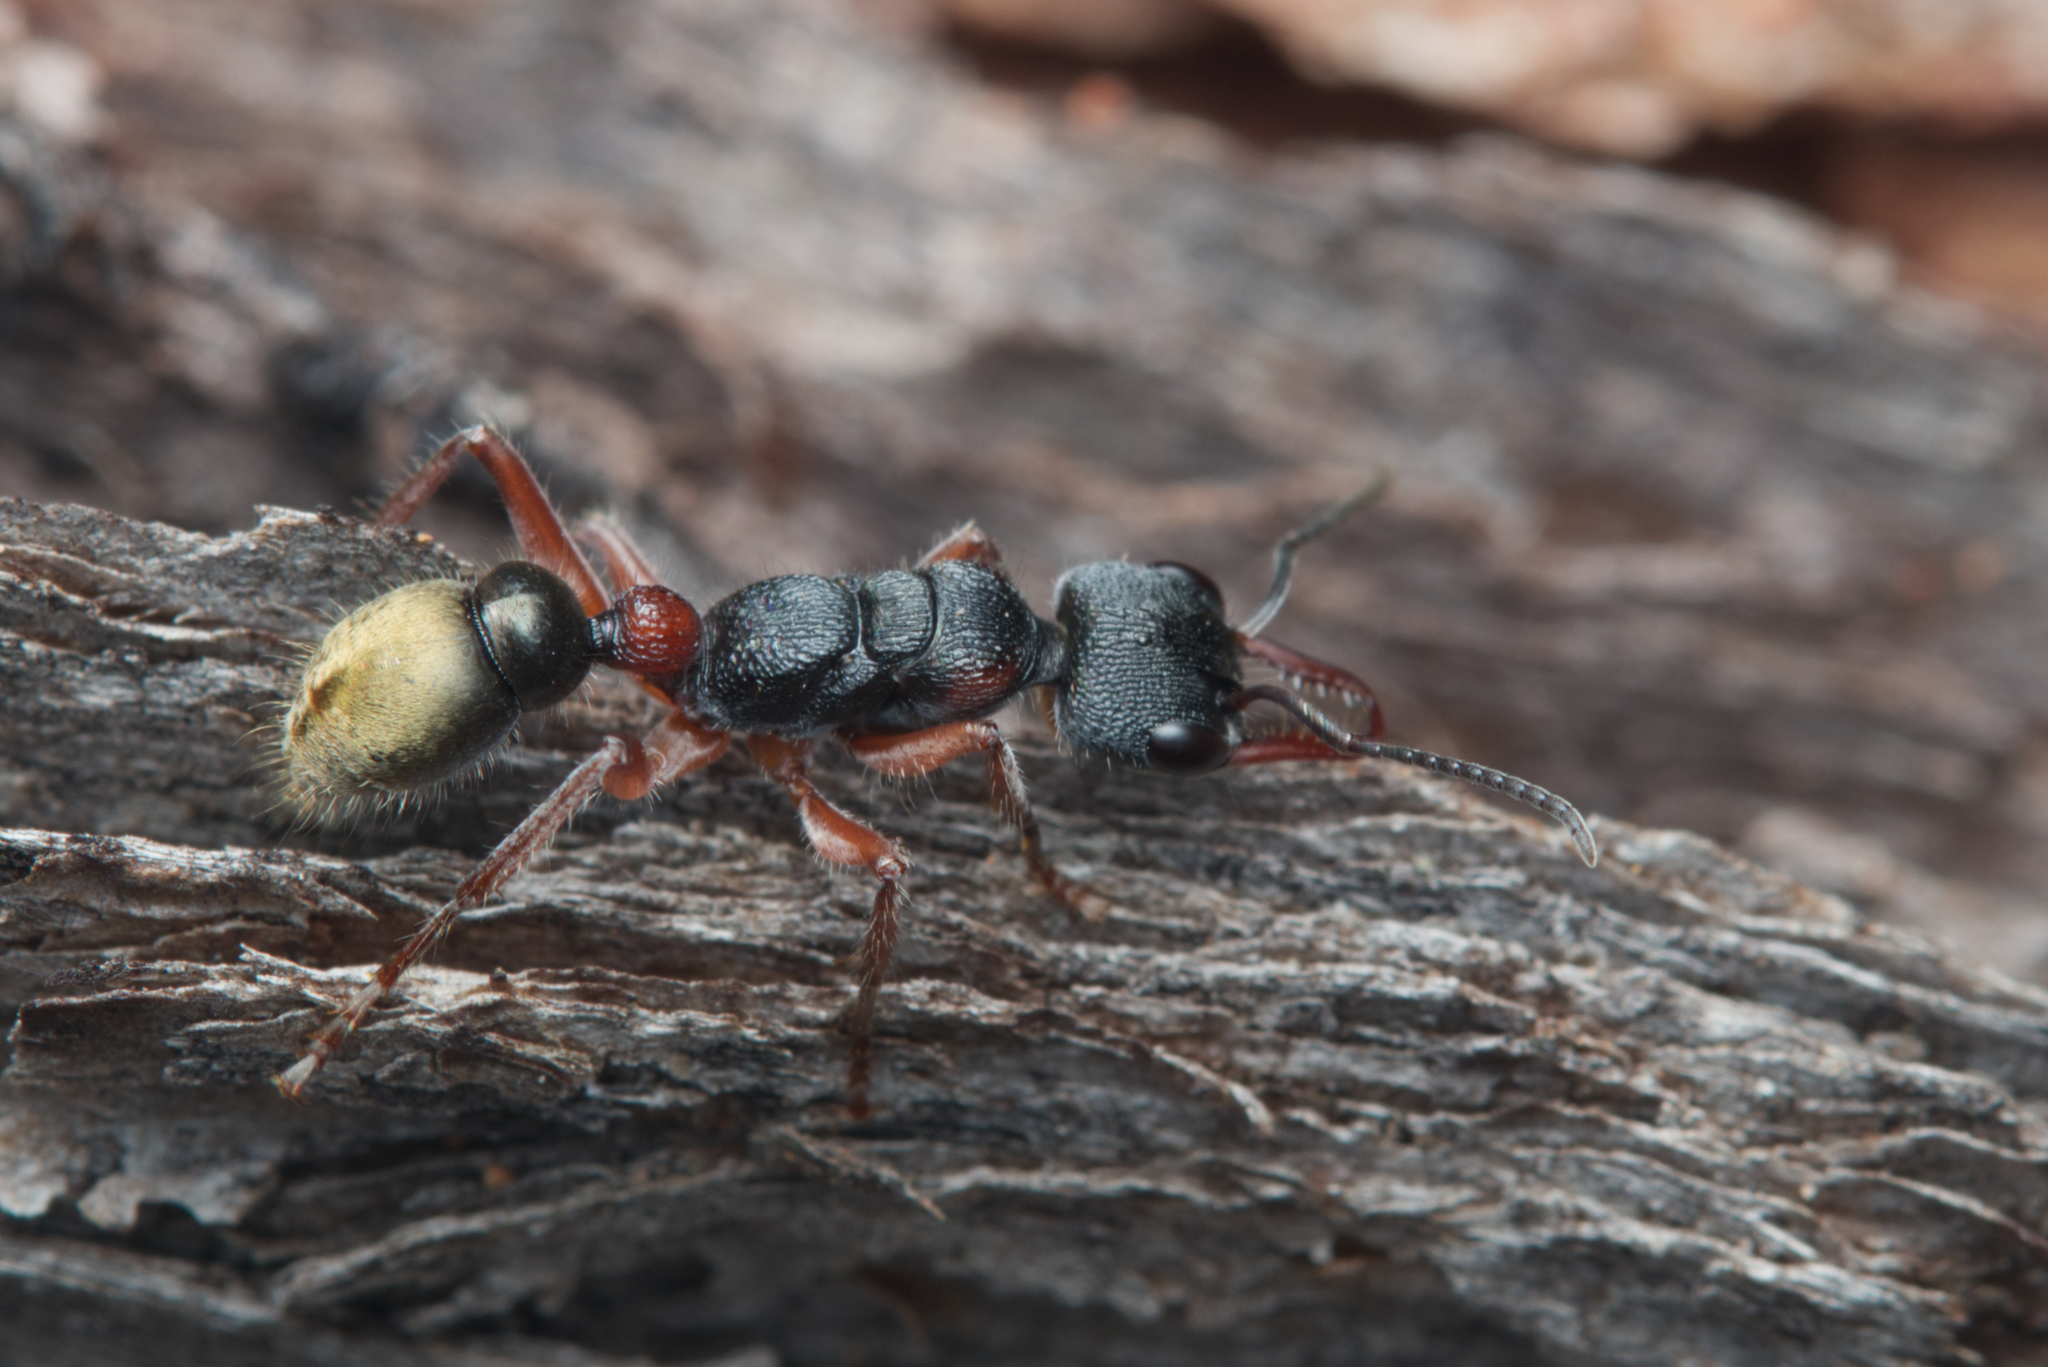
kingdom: Animalia
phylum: Arthropoda
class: Insecta
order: Hymenoptera
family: Formicidae
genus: Myrmecia
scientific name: Myrmecia chrysogaster
